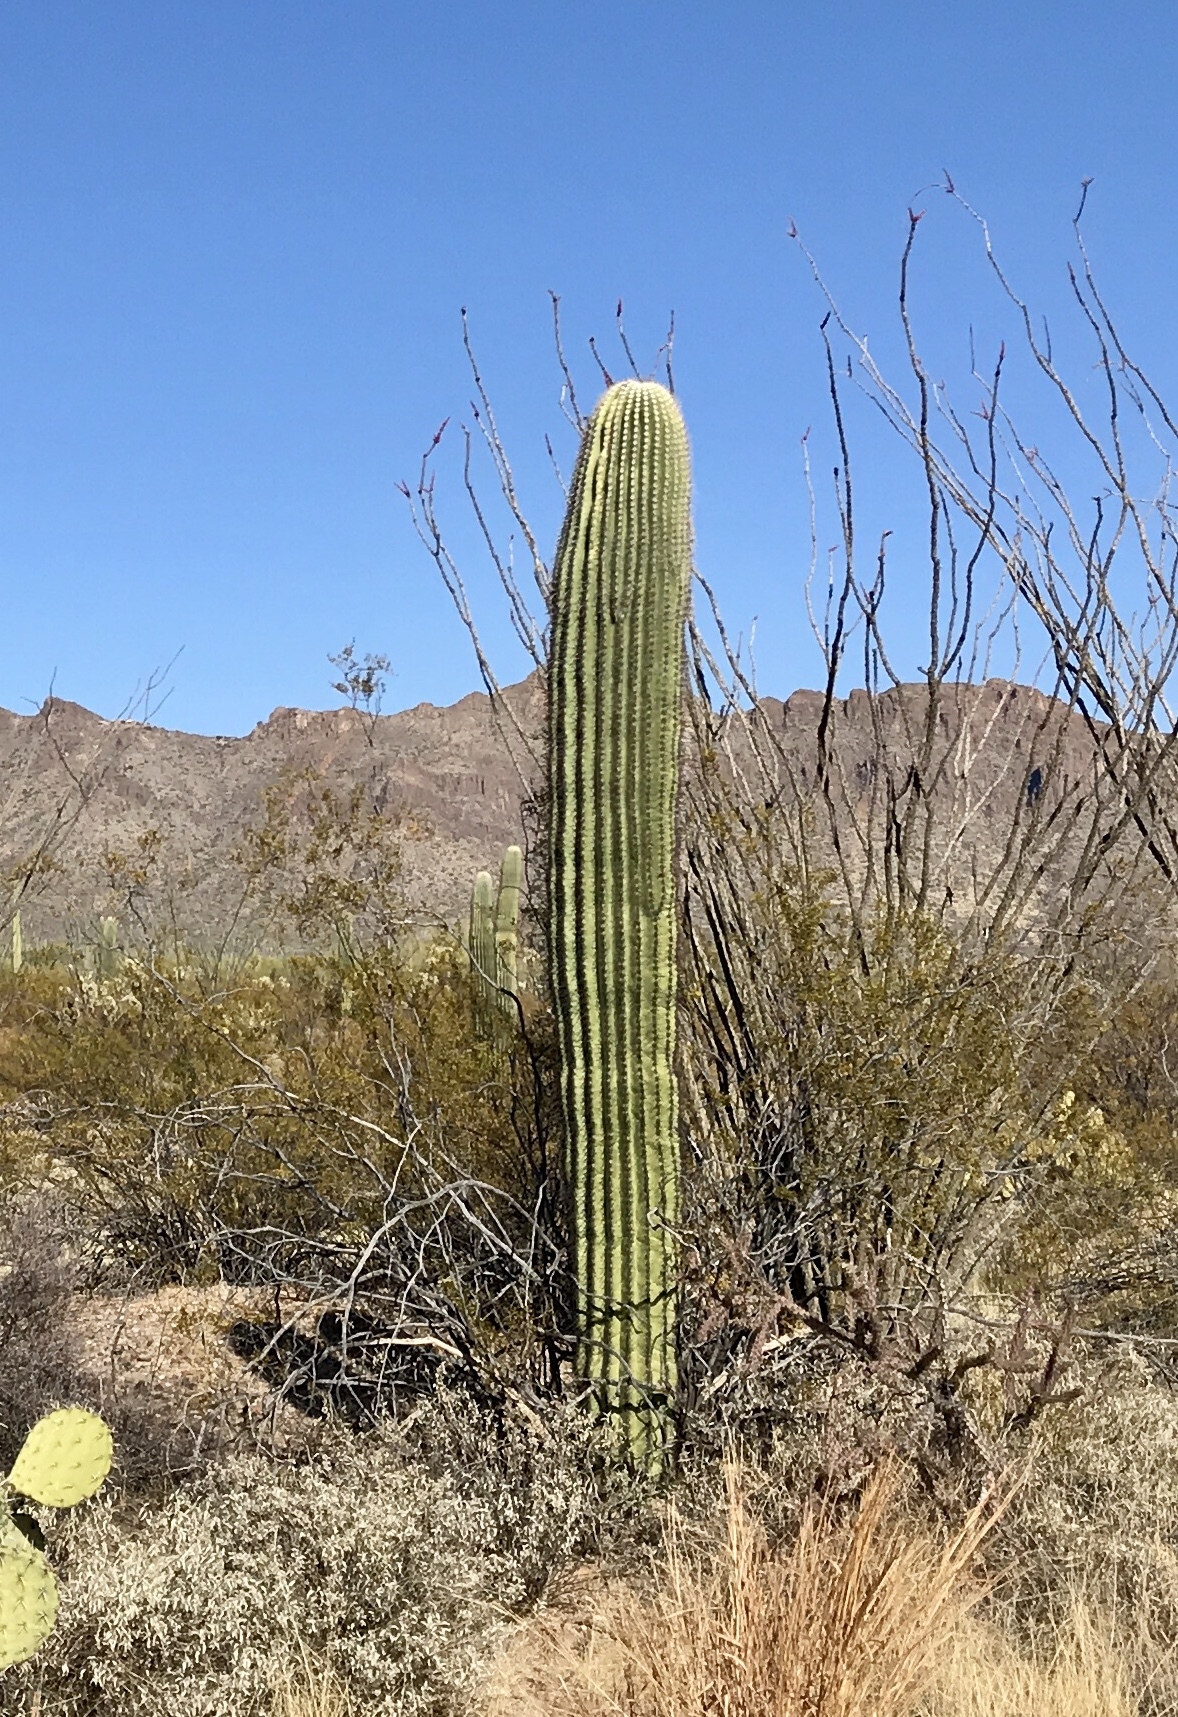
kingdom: Plantae
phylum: Tracheophyta
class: Magnoliopsida
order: Caryophyllales
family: Cactaceae
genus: Carnegiea
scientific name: Carnegiea gigantea
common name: Saguaro
